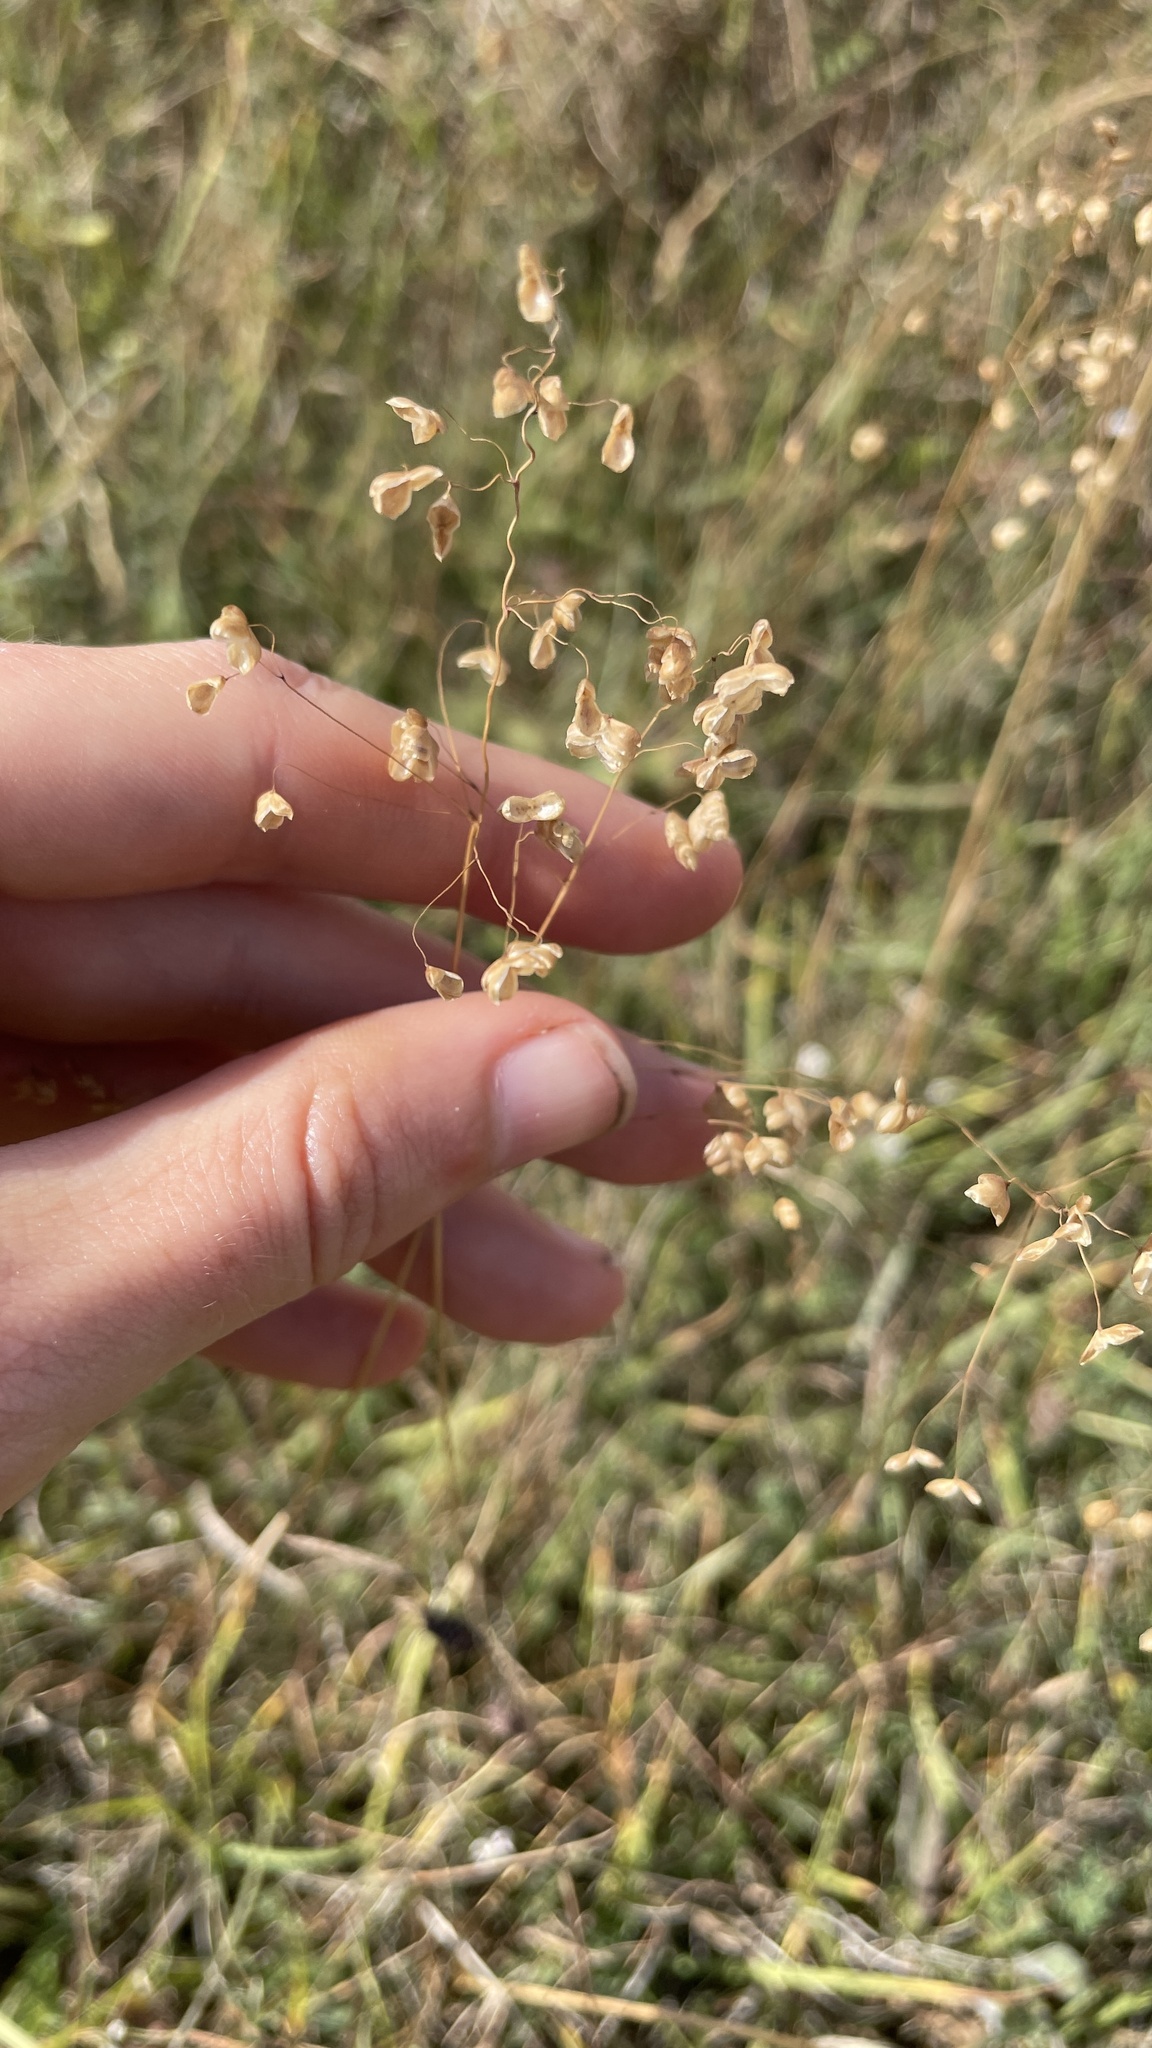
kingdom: Plantae
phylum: Tracheophyta
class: Liliopsida
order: Poales
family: Poaceae
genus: Briza
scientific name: Briza media
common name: Quaking grass
